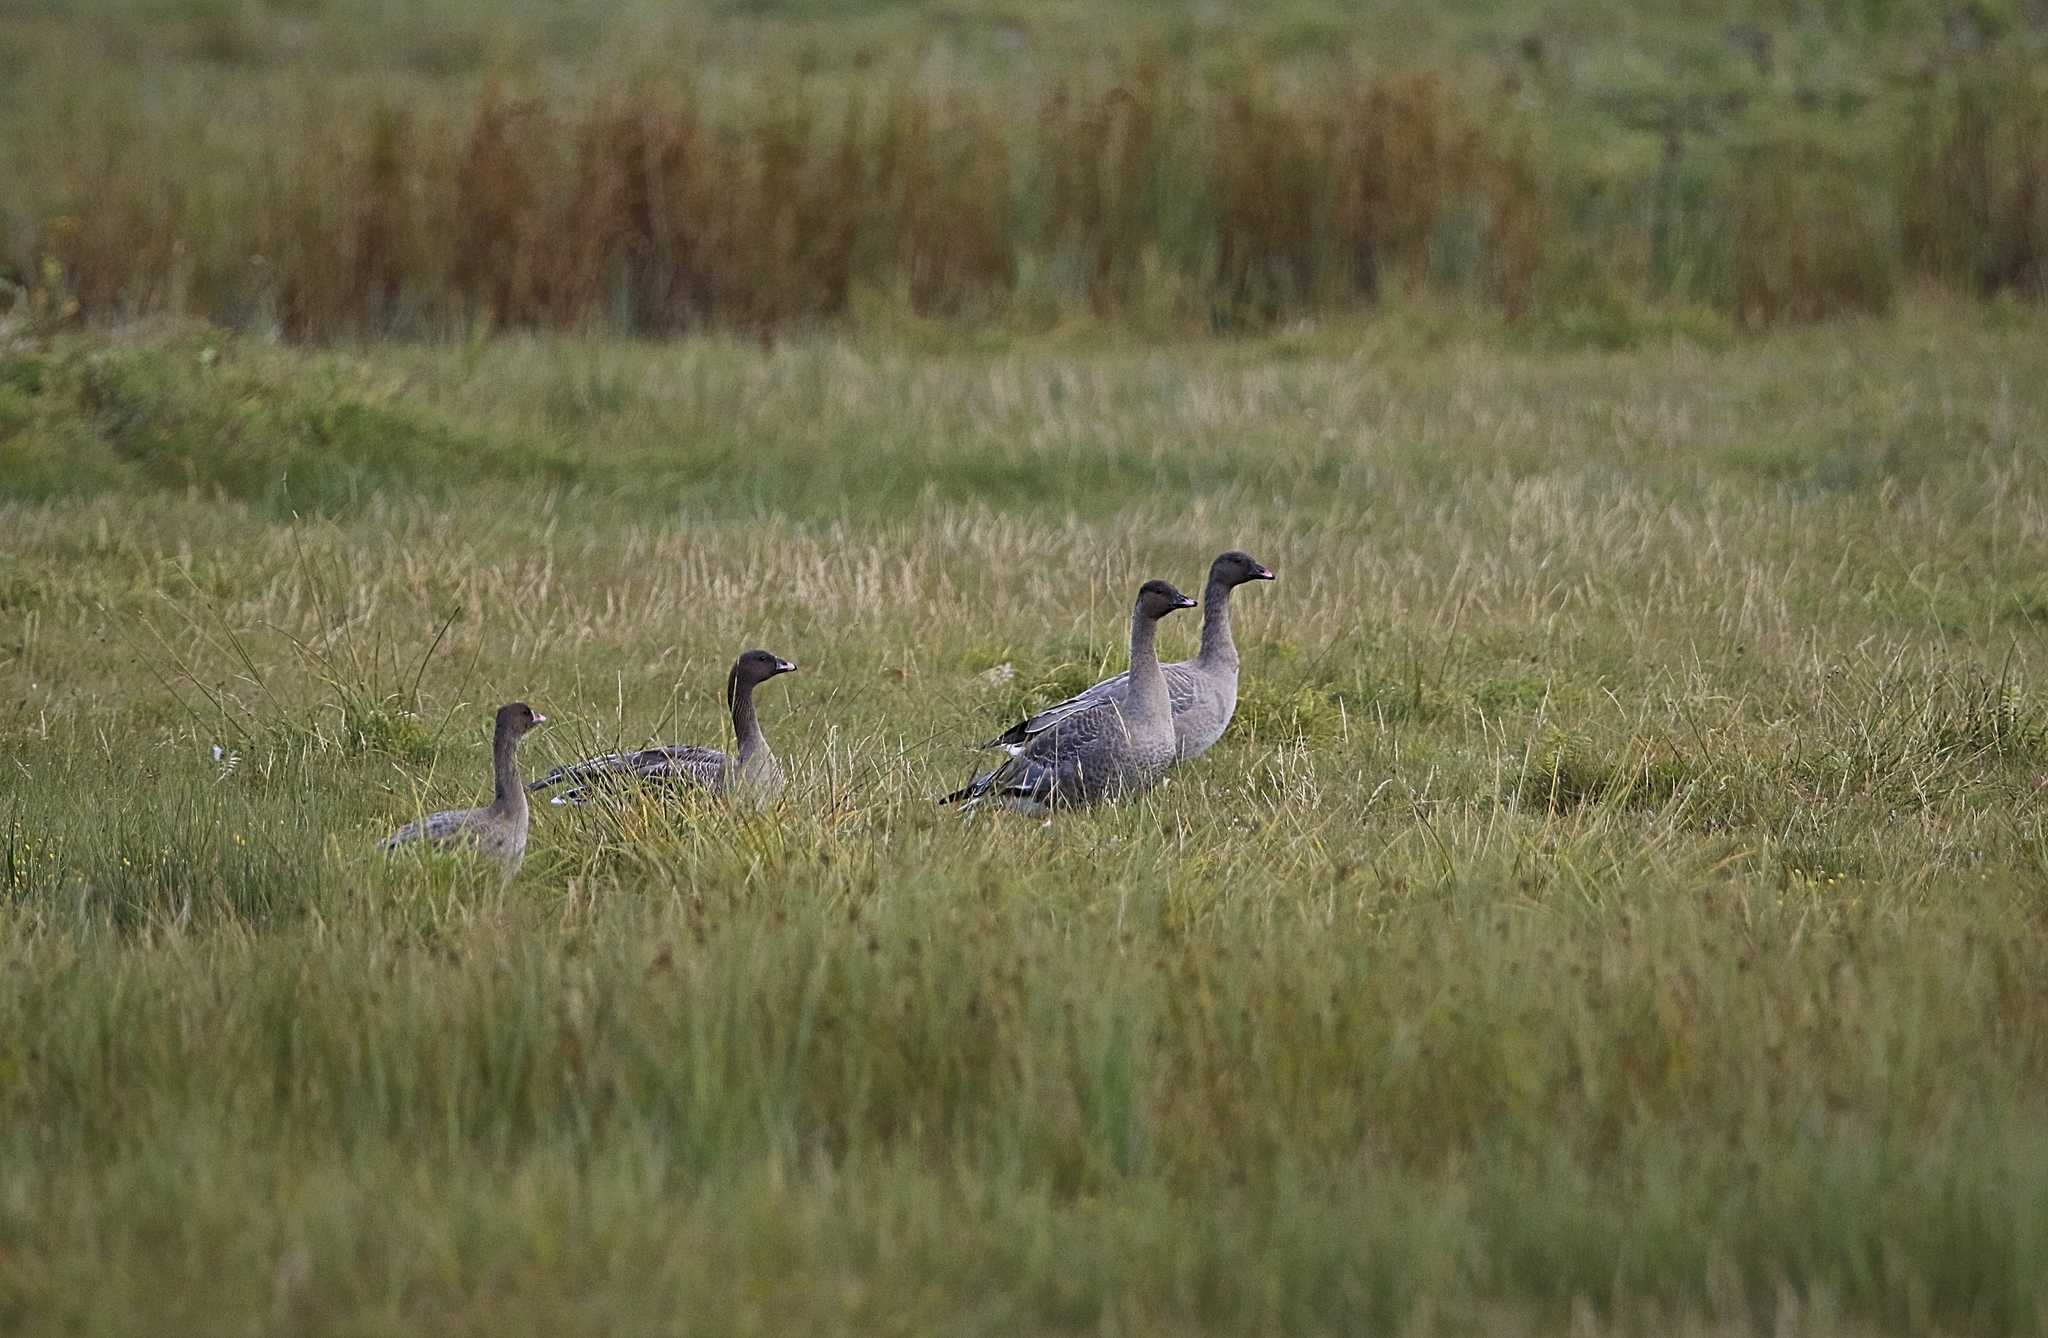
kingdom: Animalia
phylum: Chordata
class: Aves
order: Anseriformes
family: Anatidae
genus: Anser
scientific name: Anser brachyrhynchus
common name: Pink-footed goose
